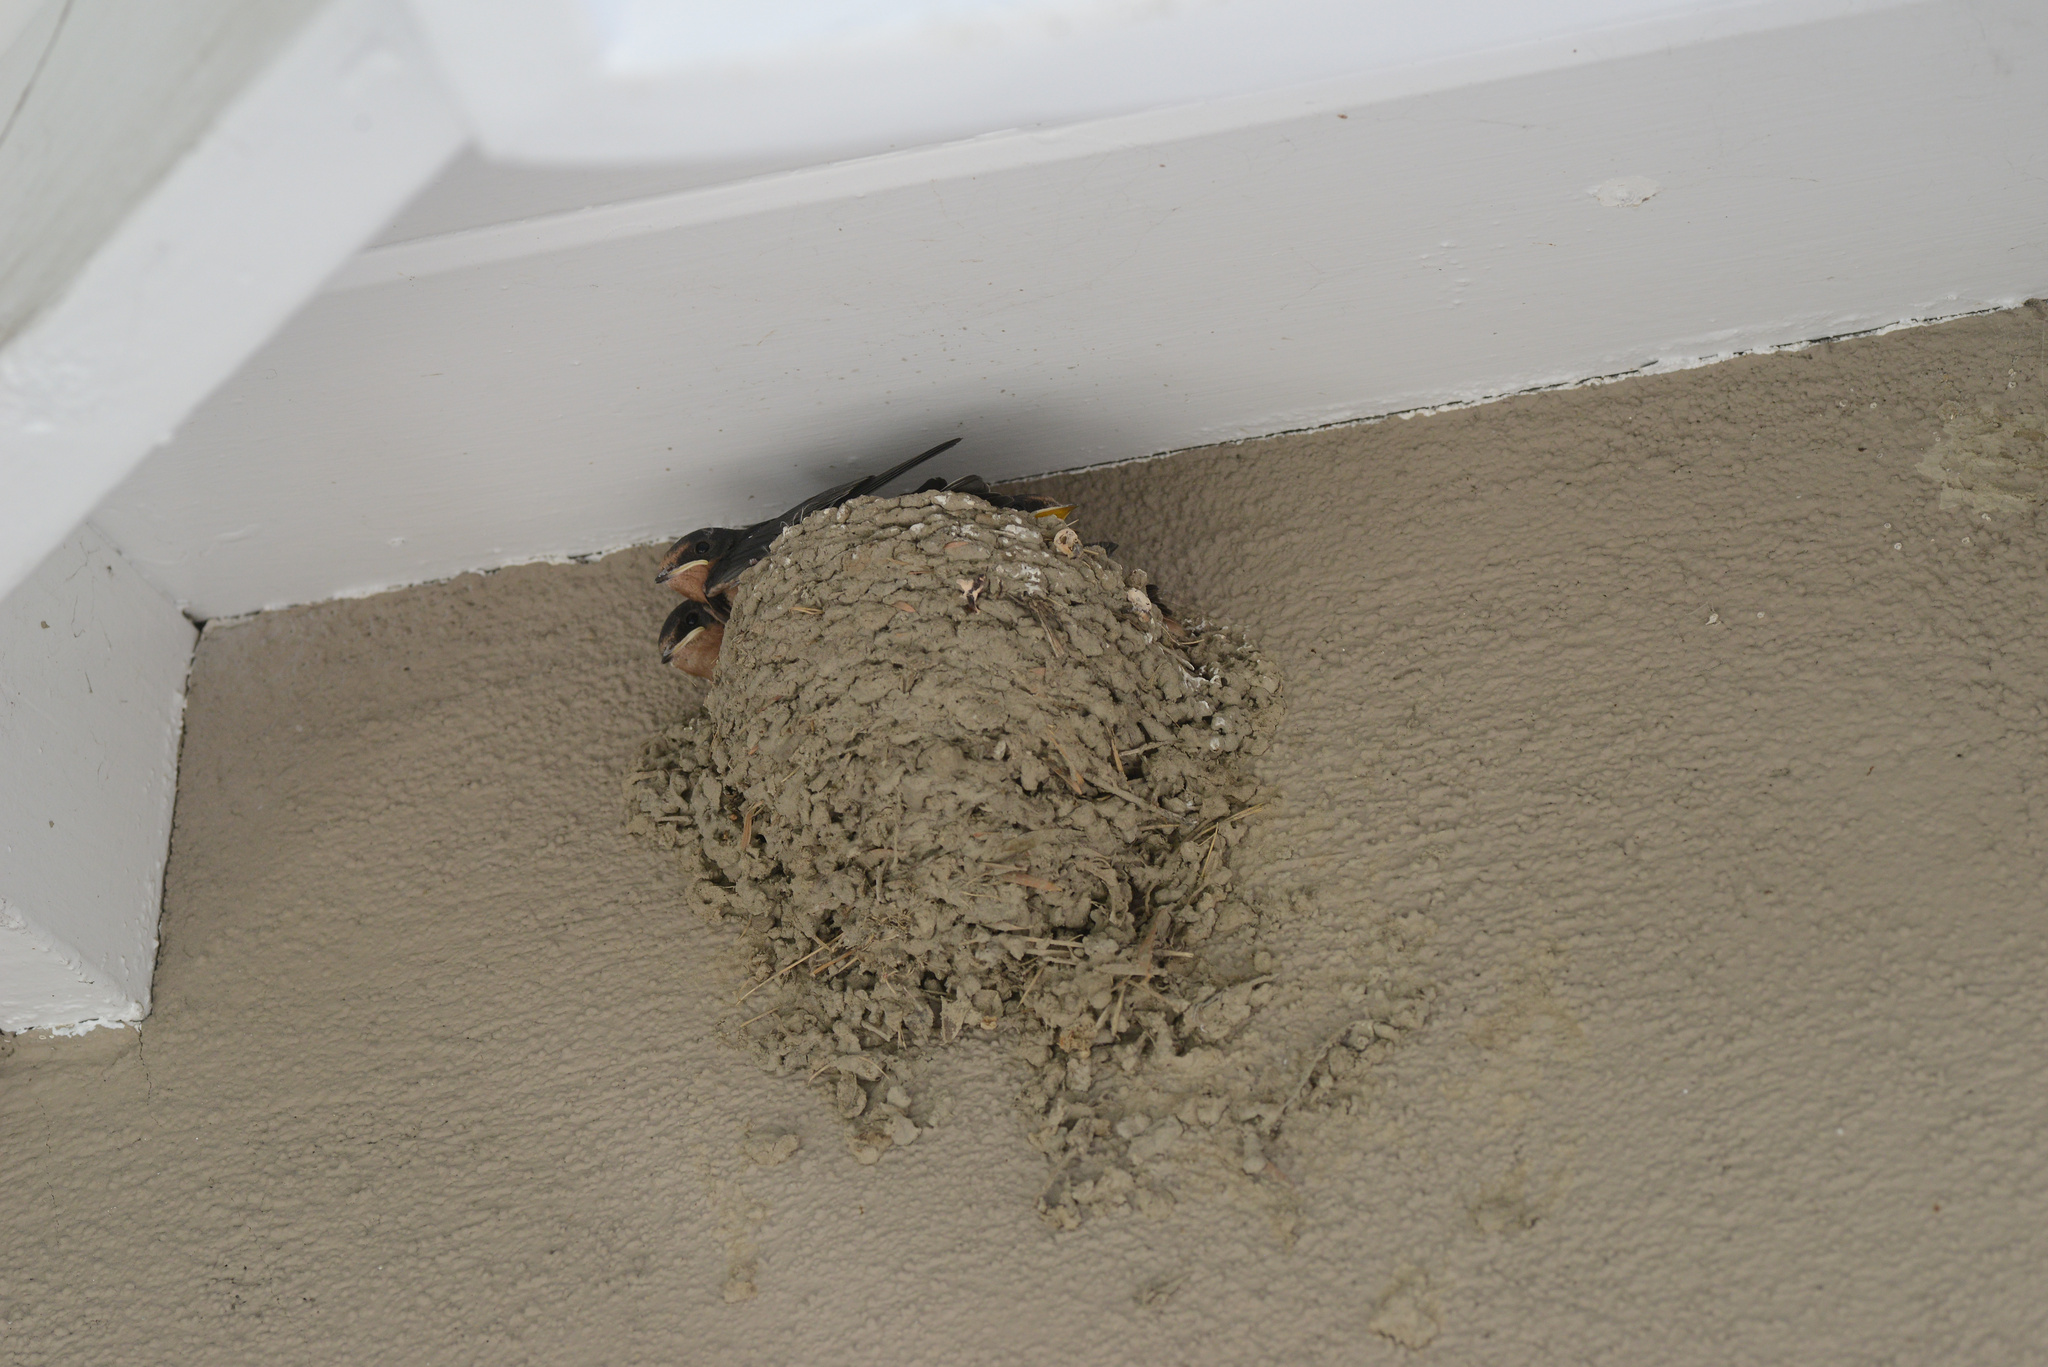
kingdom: Animalia
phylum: Chordata
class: Aves
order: Passeriformes
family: Hirundinidae
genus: Hirundo
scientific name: Hirundo rustica
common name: Barn swallow
